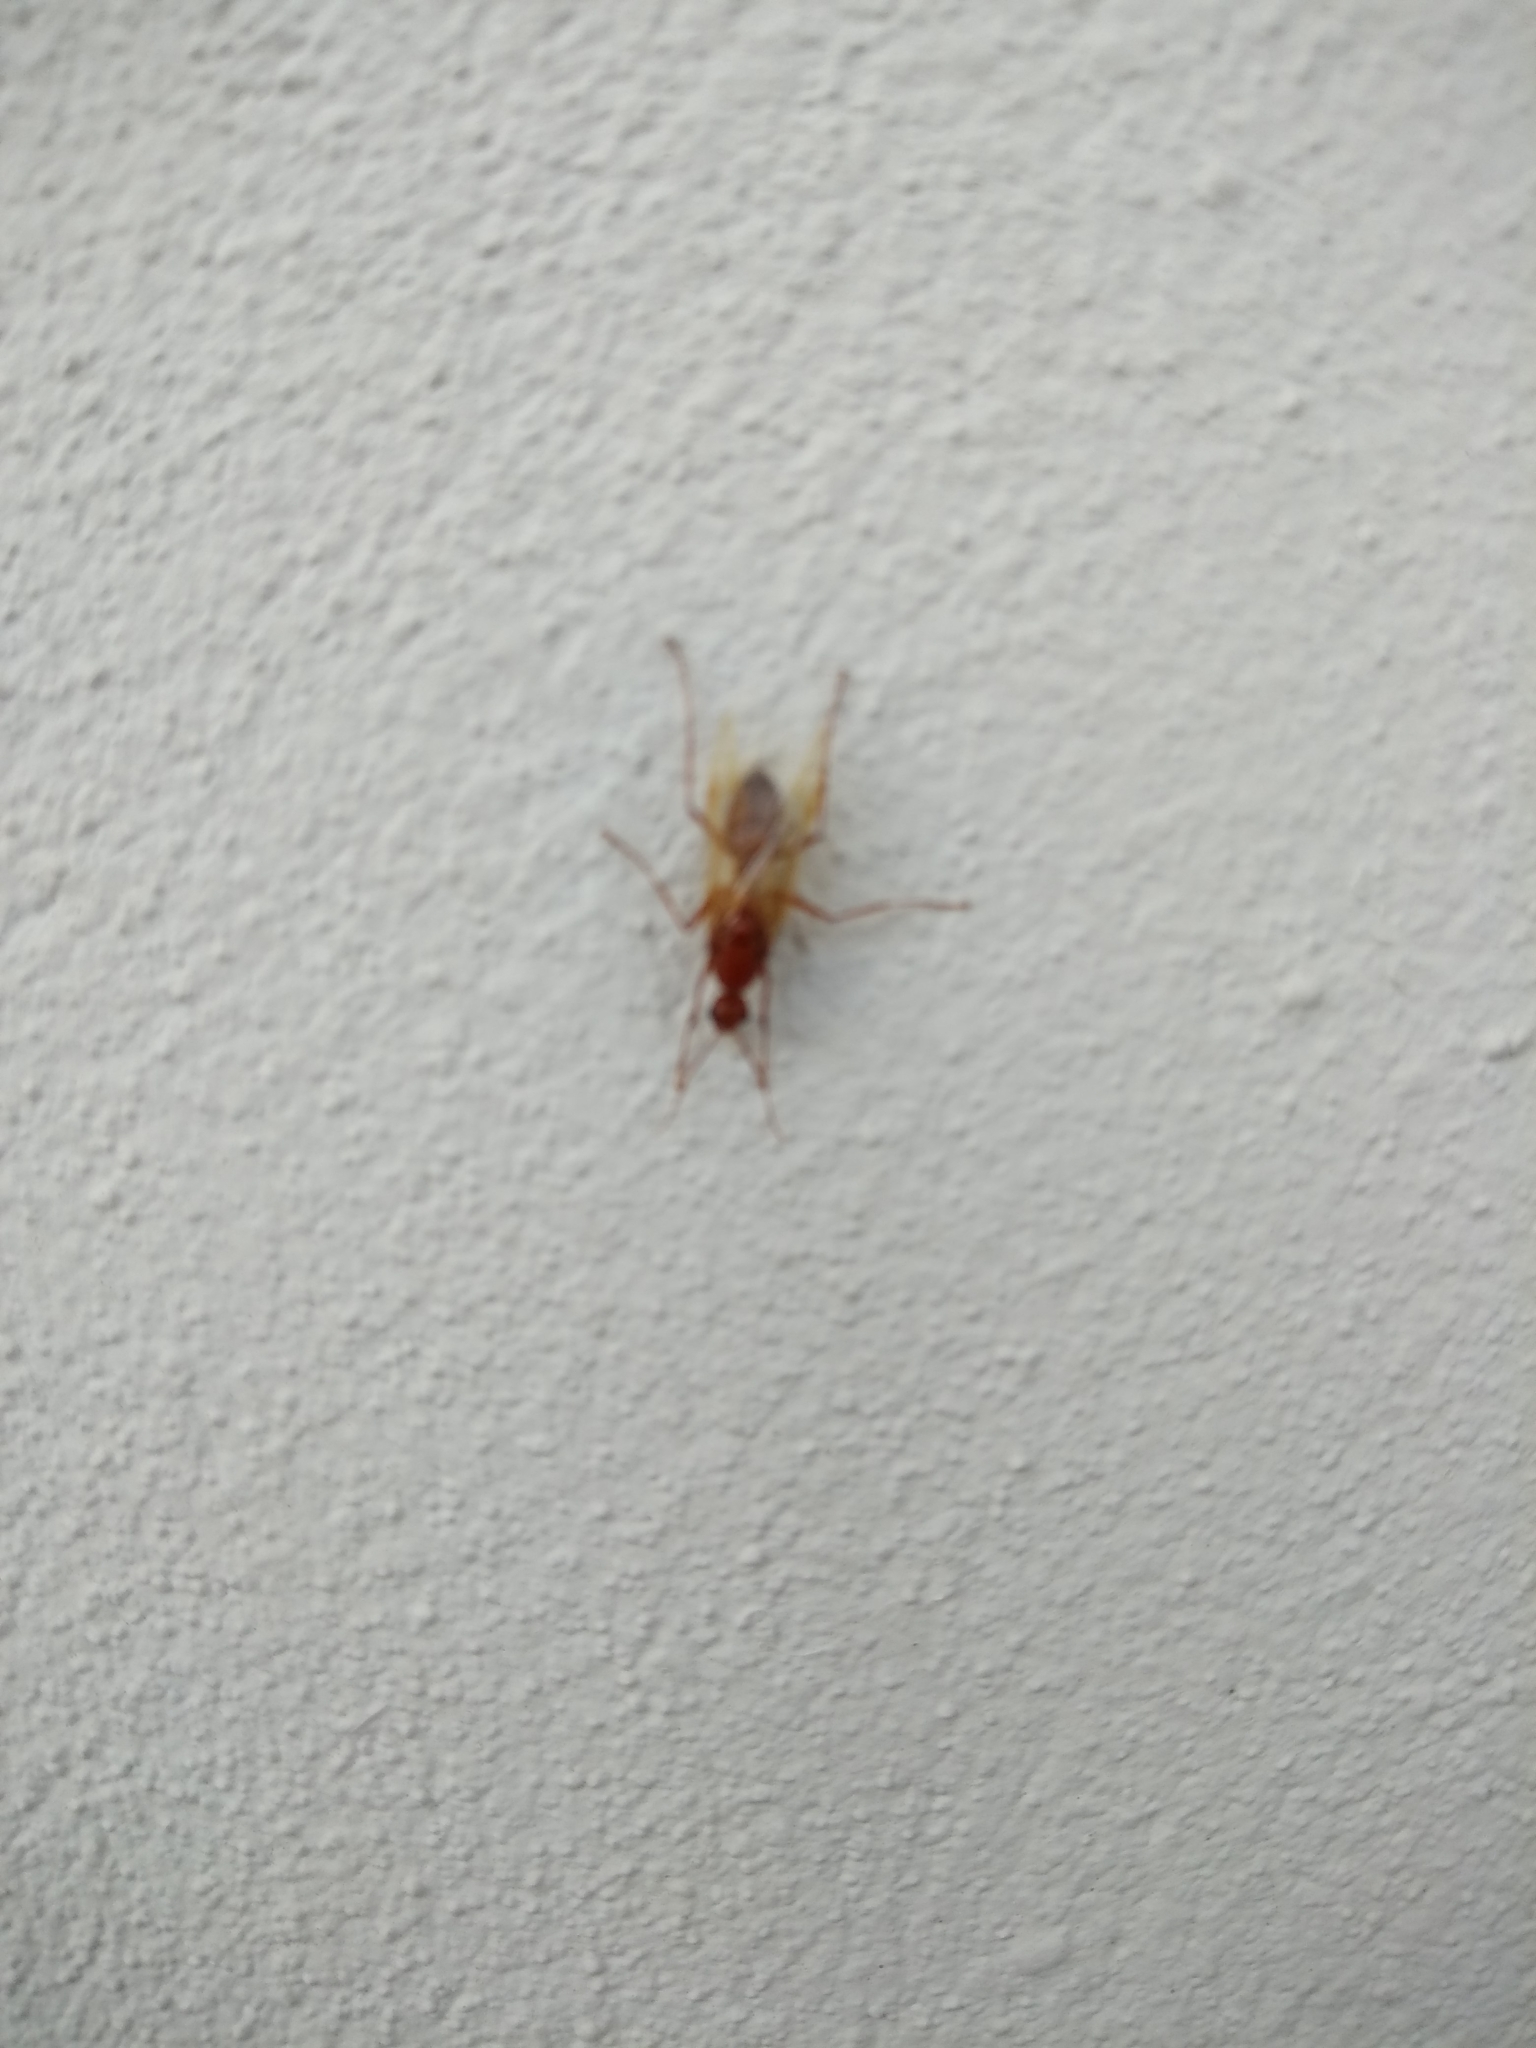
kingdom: Animalia
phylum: Arthropoda
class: Insecta
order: Hymenoptera
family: Formicidae
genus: Camponotus
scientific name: Camponotus castaneus
